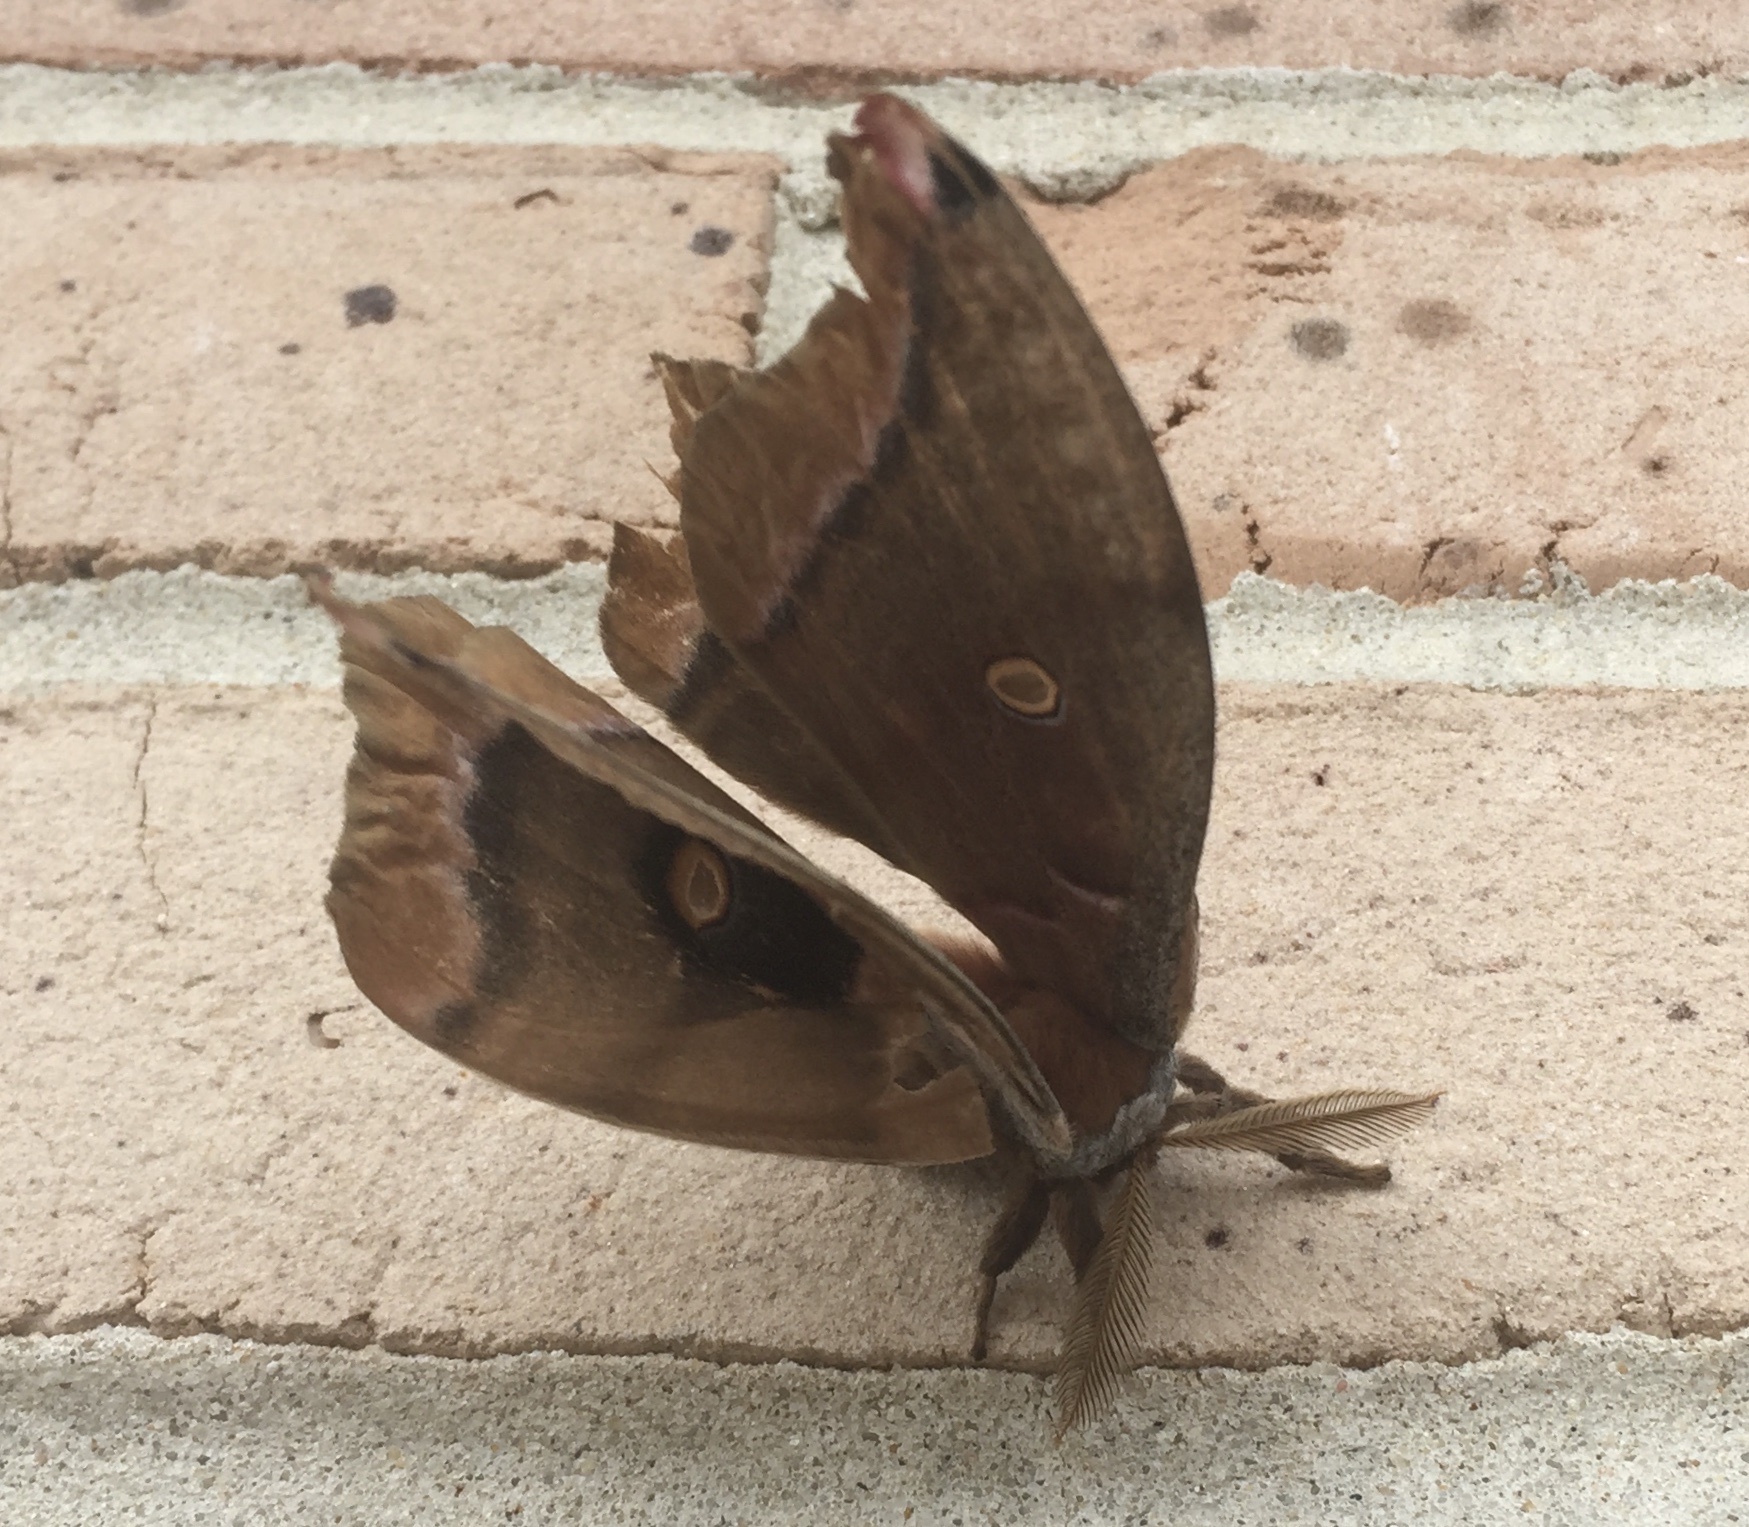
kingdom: Animalia
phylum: Arthropoda
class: Insecta
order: Lepidoptera
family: Saturniidae
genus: Antheraea
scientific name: Antheraea polyphemus
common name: Polyphemus moth
